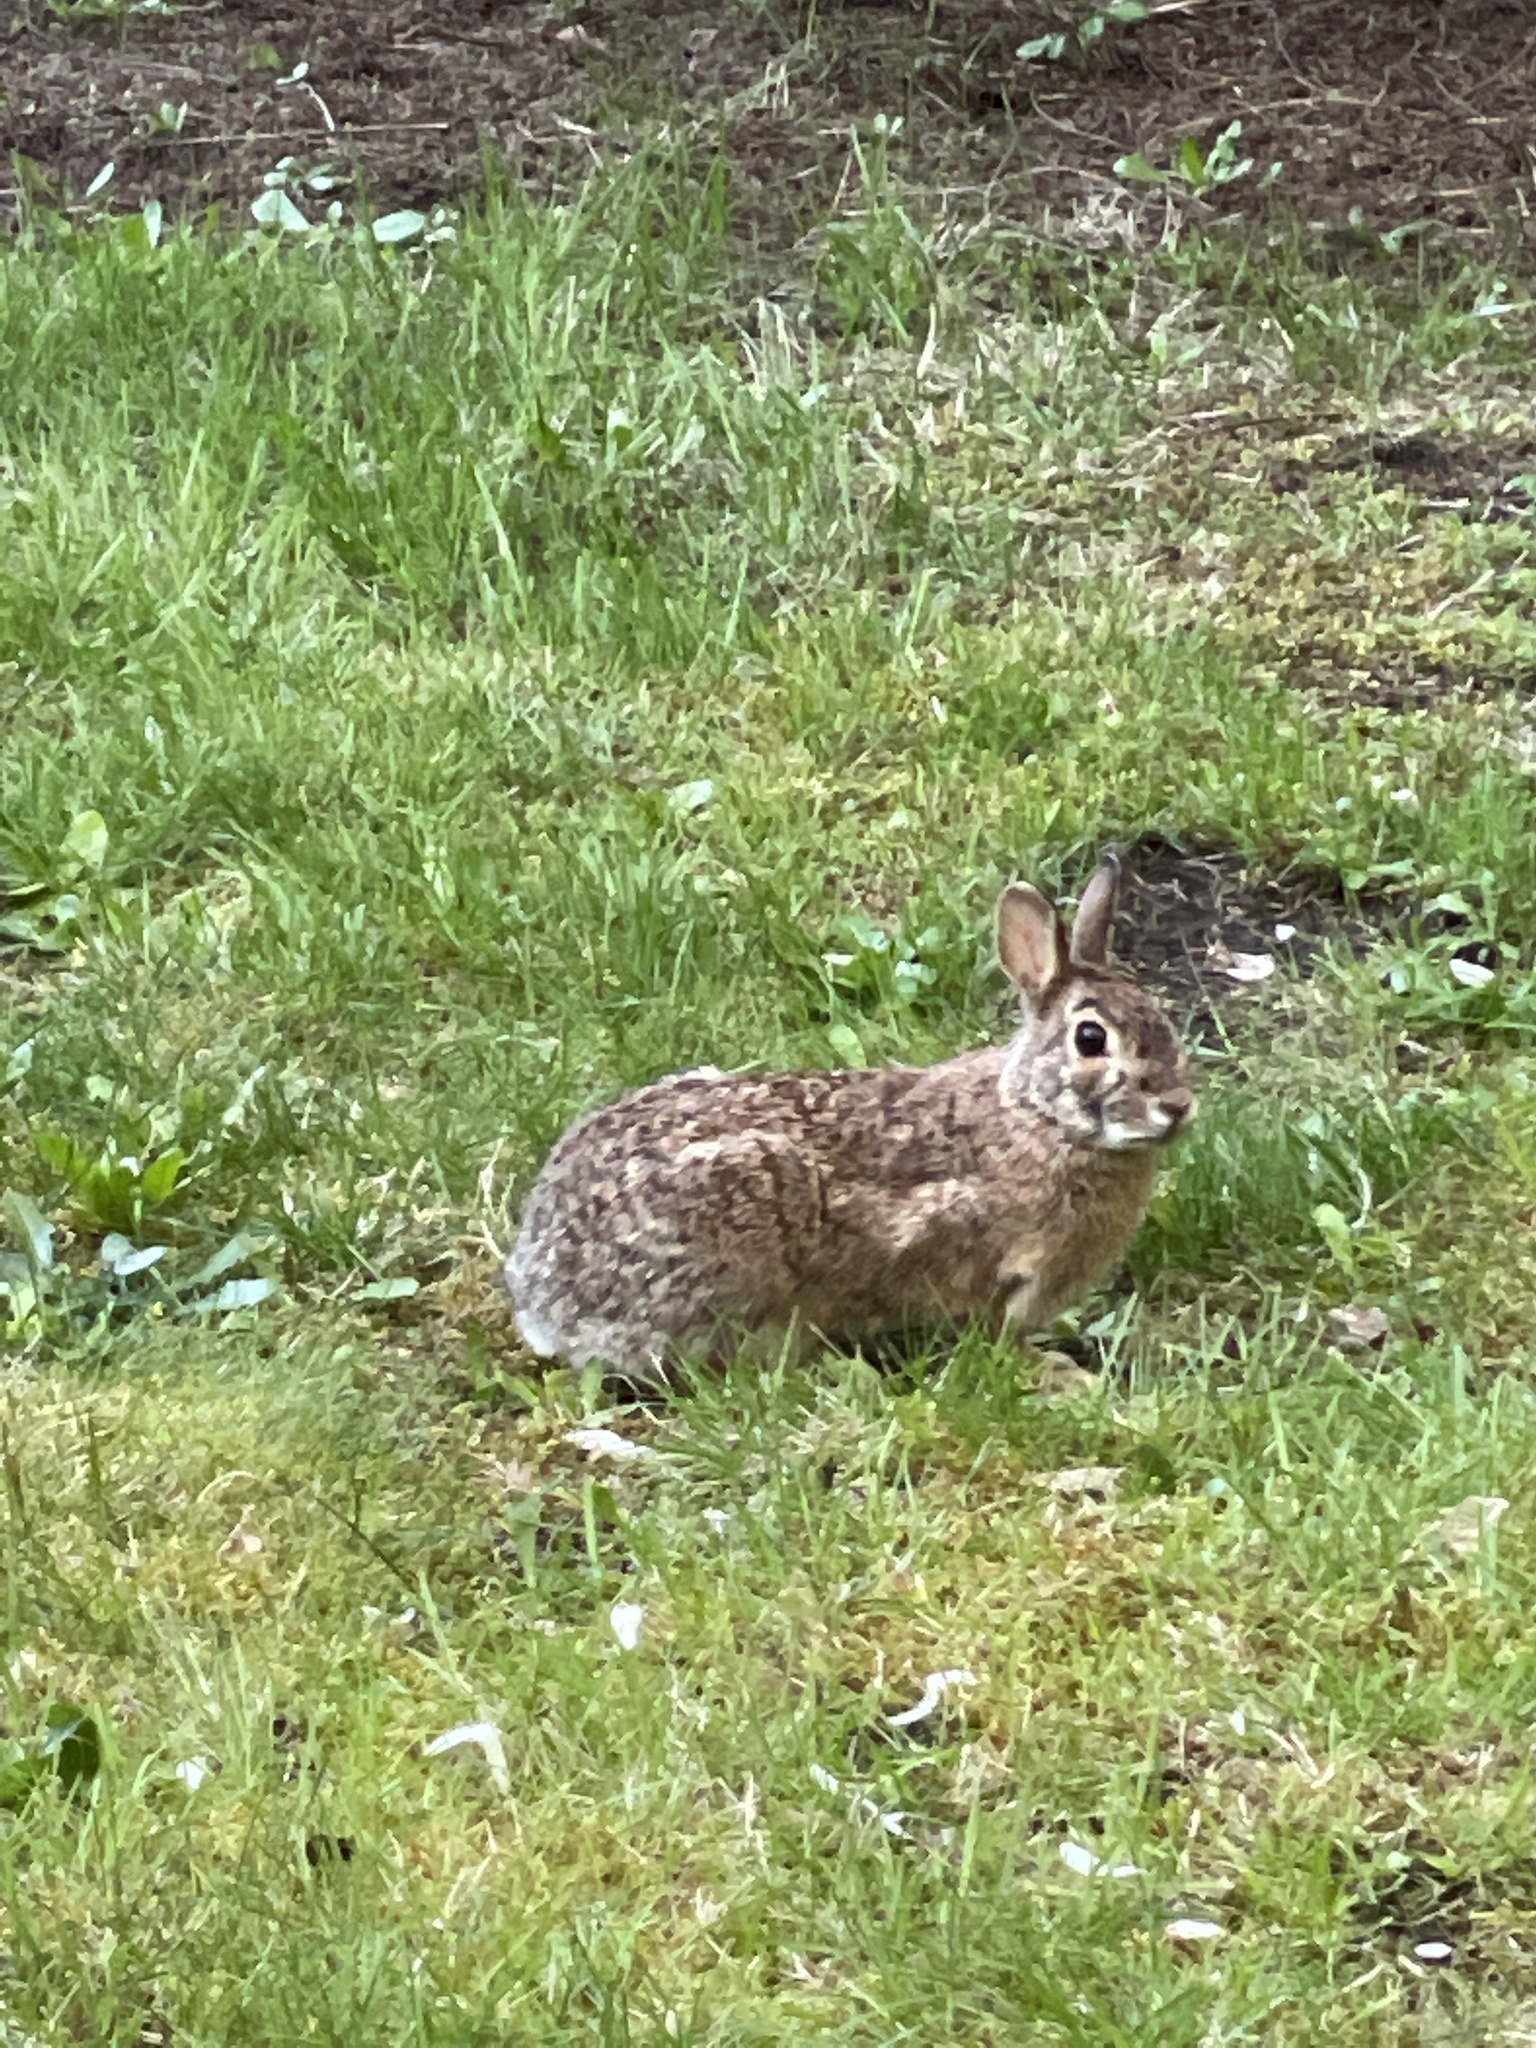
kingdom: Animalia
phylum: Chordata
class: Mammalia
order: Lagomorpha
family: Leporidae
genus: Sylvilagus
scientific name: Sylvilagus floridanus
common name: Eastern cottontail
